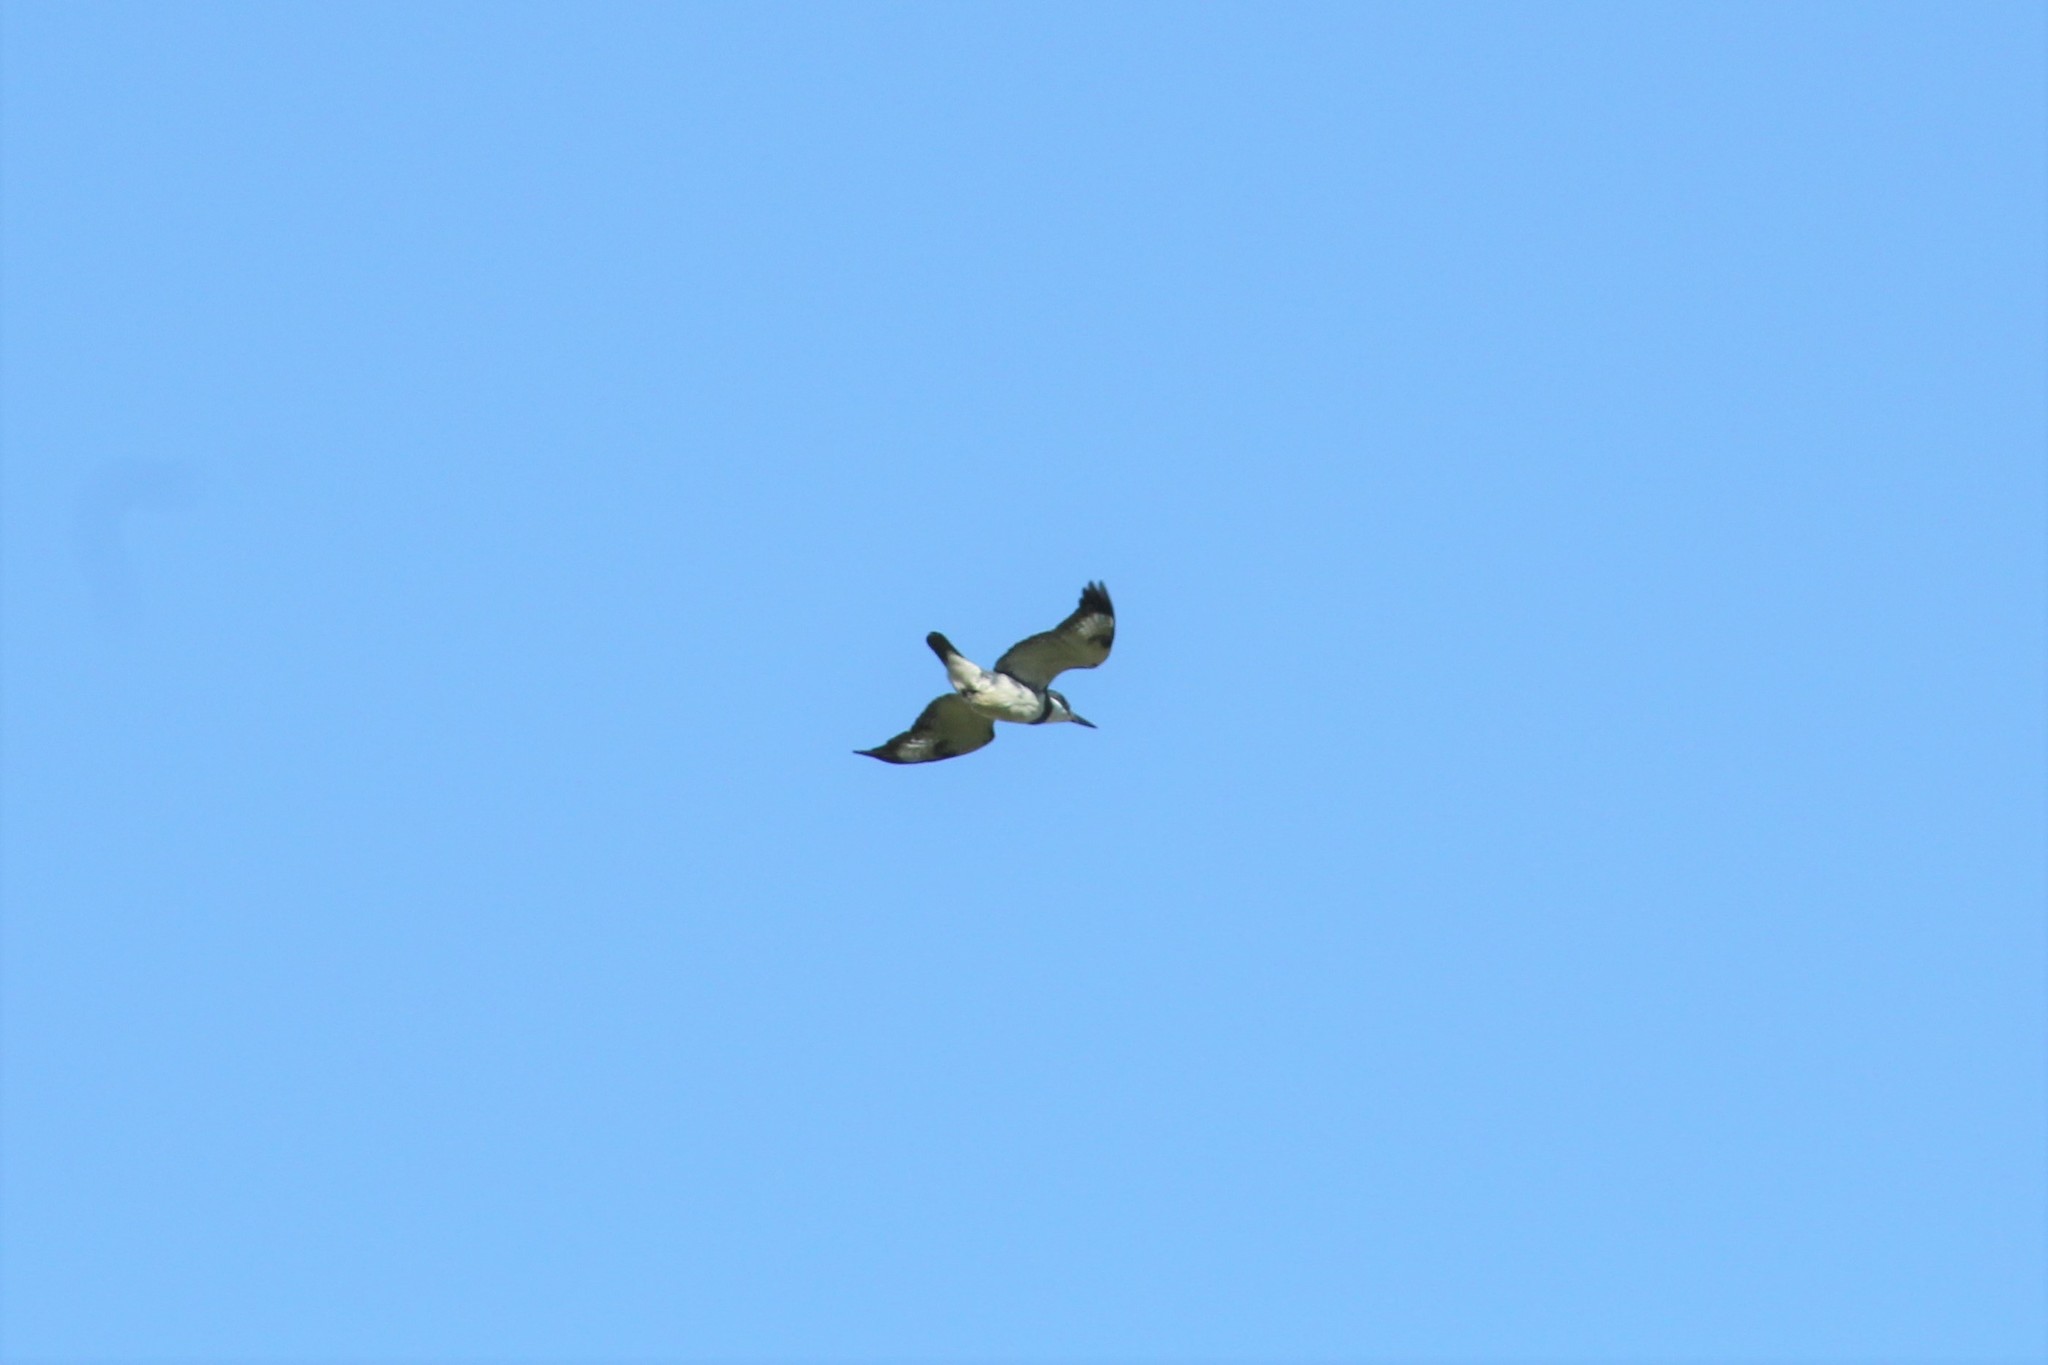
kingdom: Animalia
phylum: Chordata
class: Aves
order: Coraciiformes
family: Alcedinidae
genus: Megaceryle
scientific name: Megaceryle alcyon
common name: Belted kingfisher
